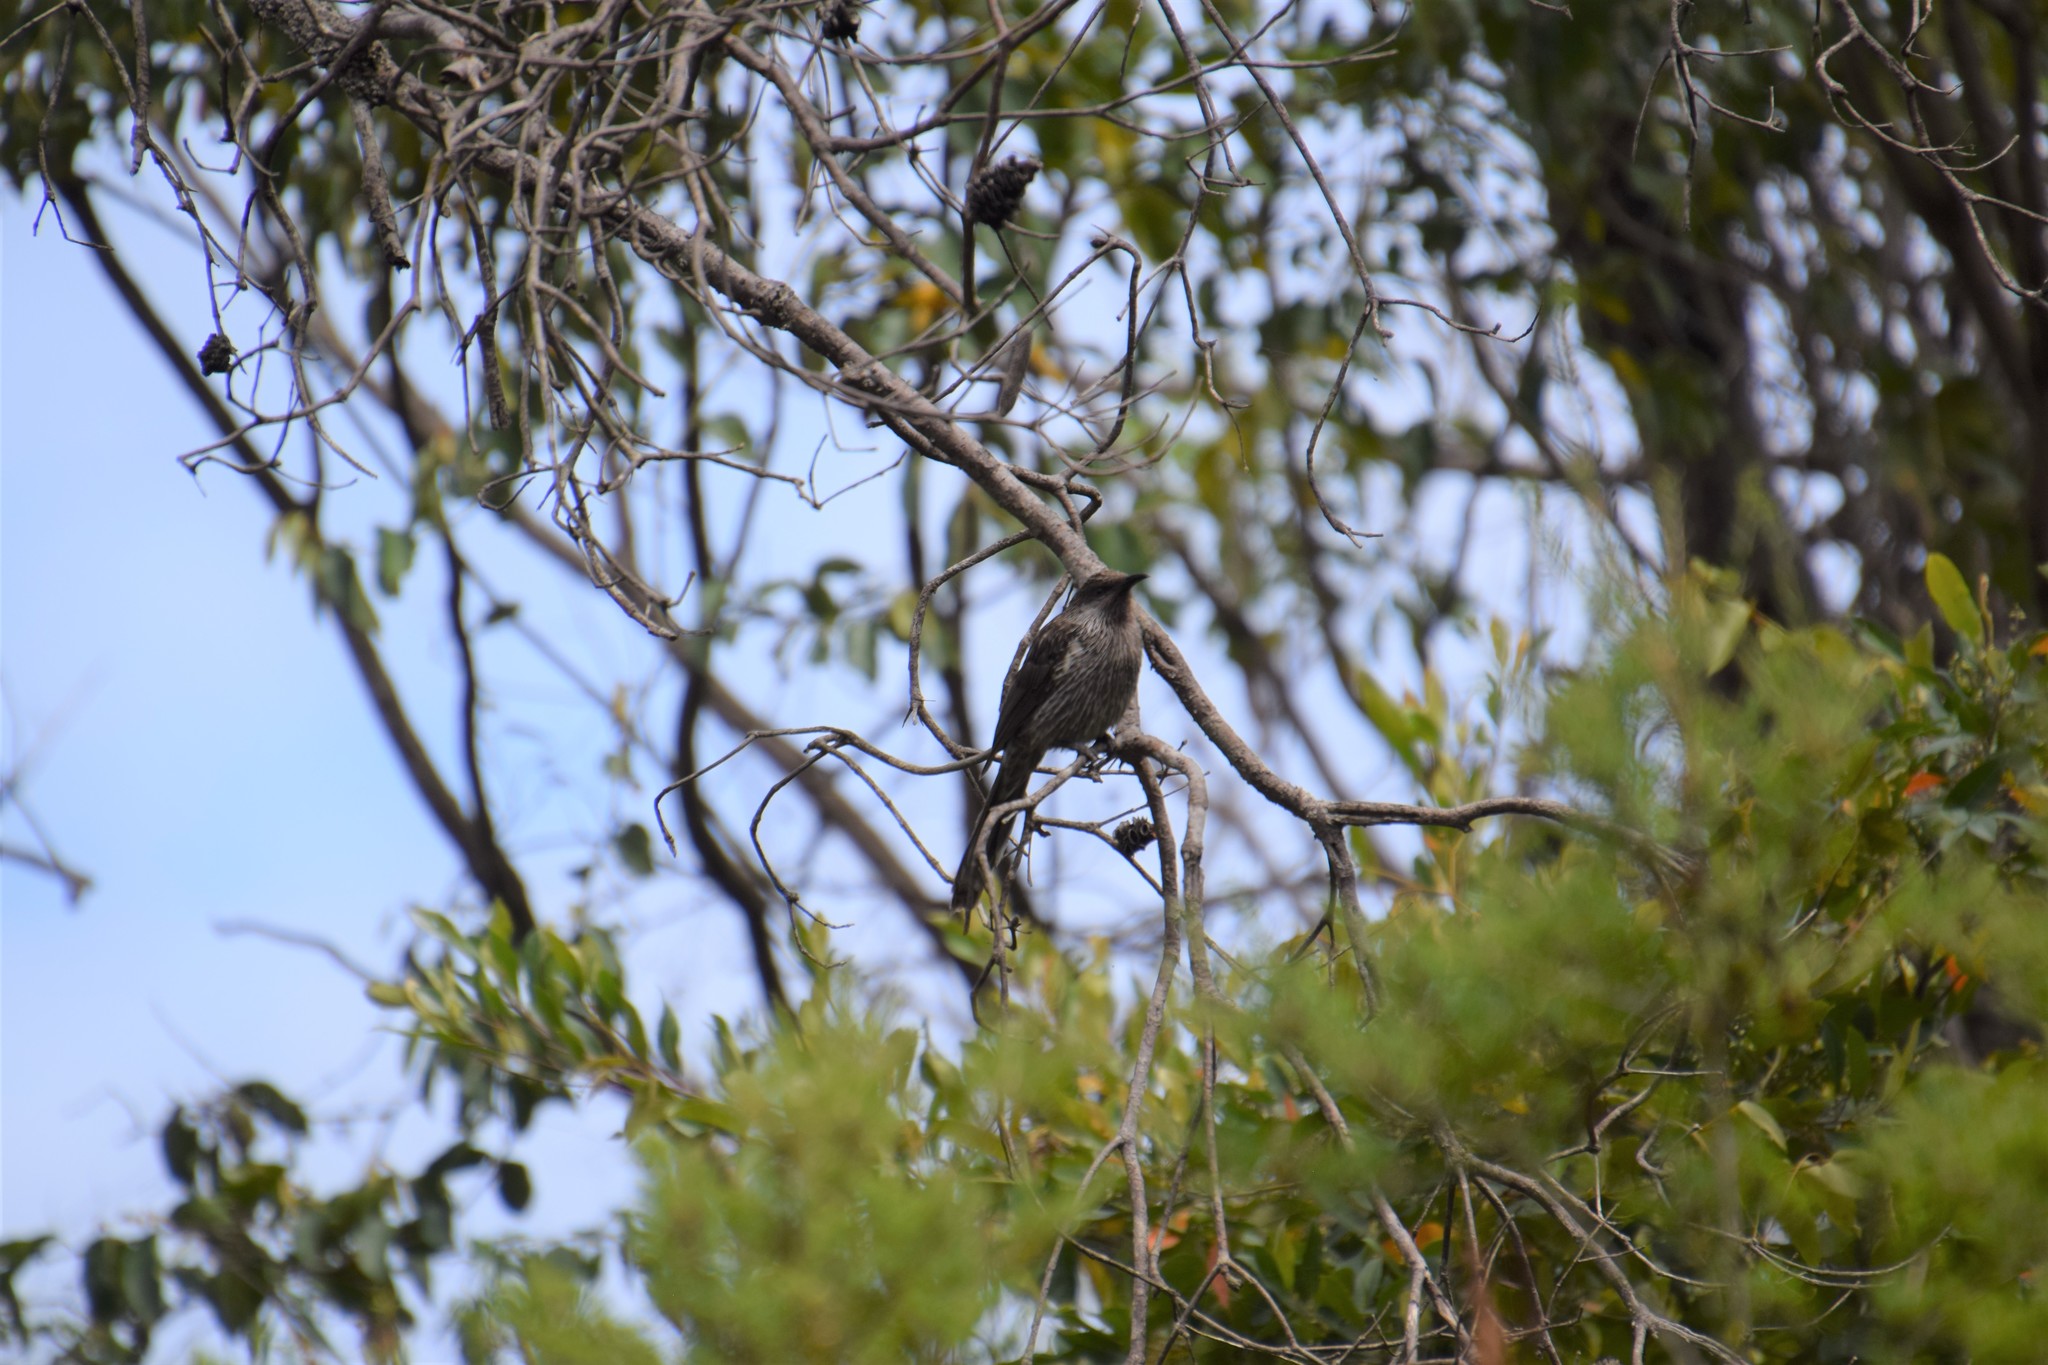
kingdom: Animalia
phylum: Chordata
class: Aves
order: Passeriformes
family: Meliphagidae
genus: Anthochaera
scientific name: Anthochaera chrysoptera
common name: Little wattlebird
